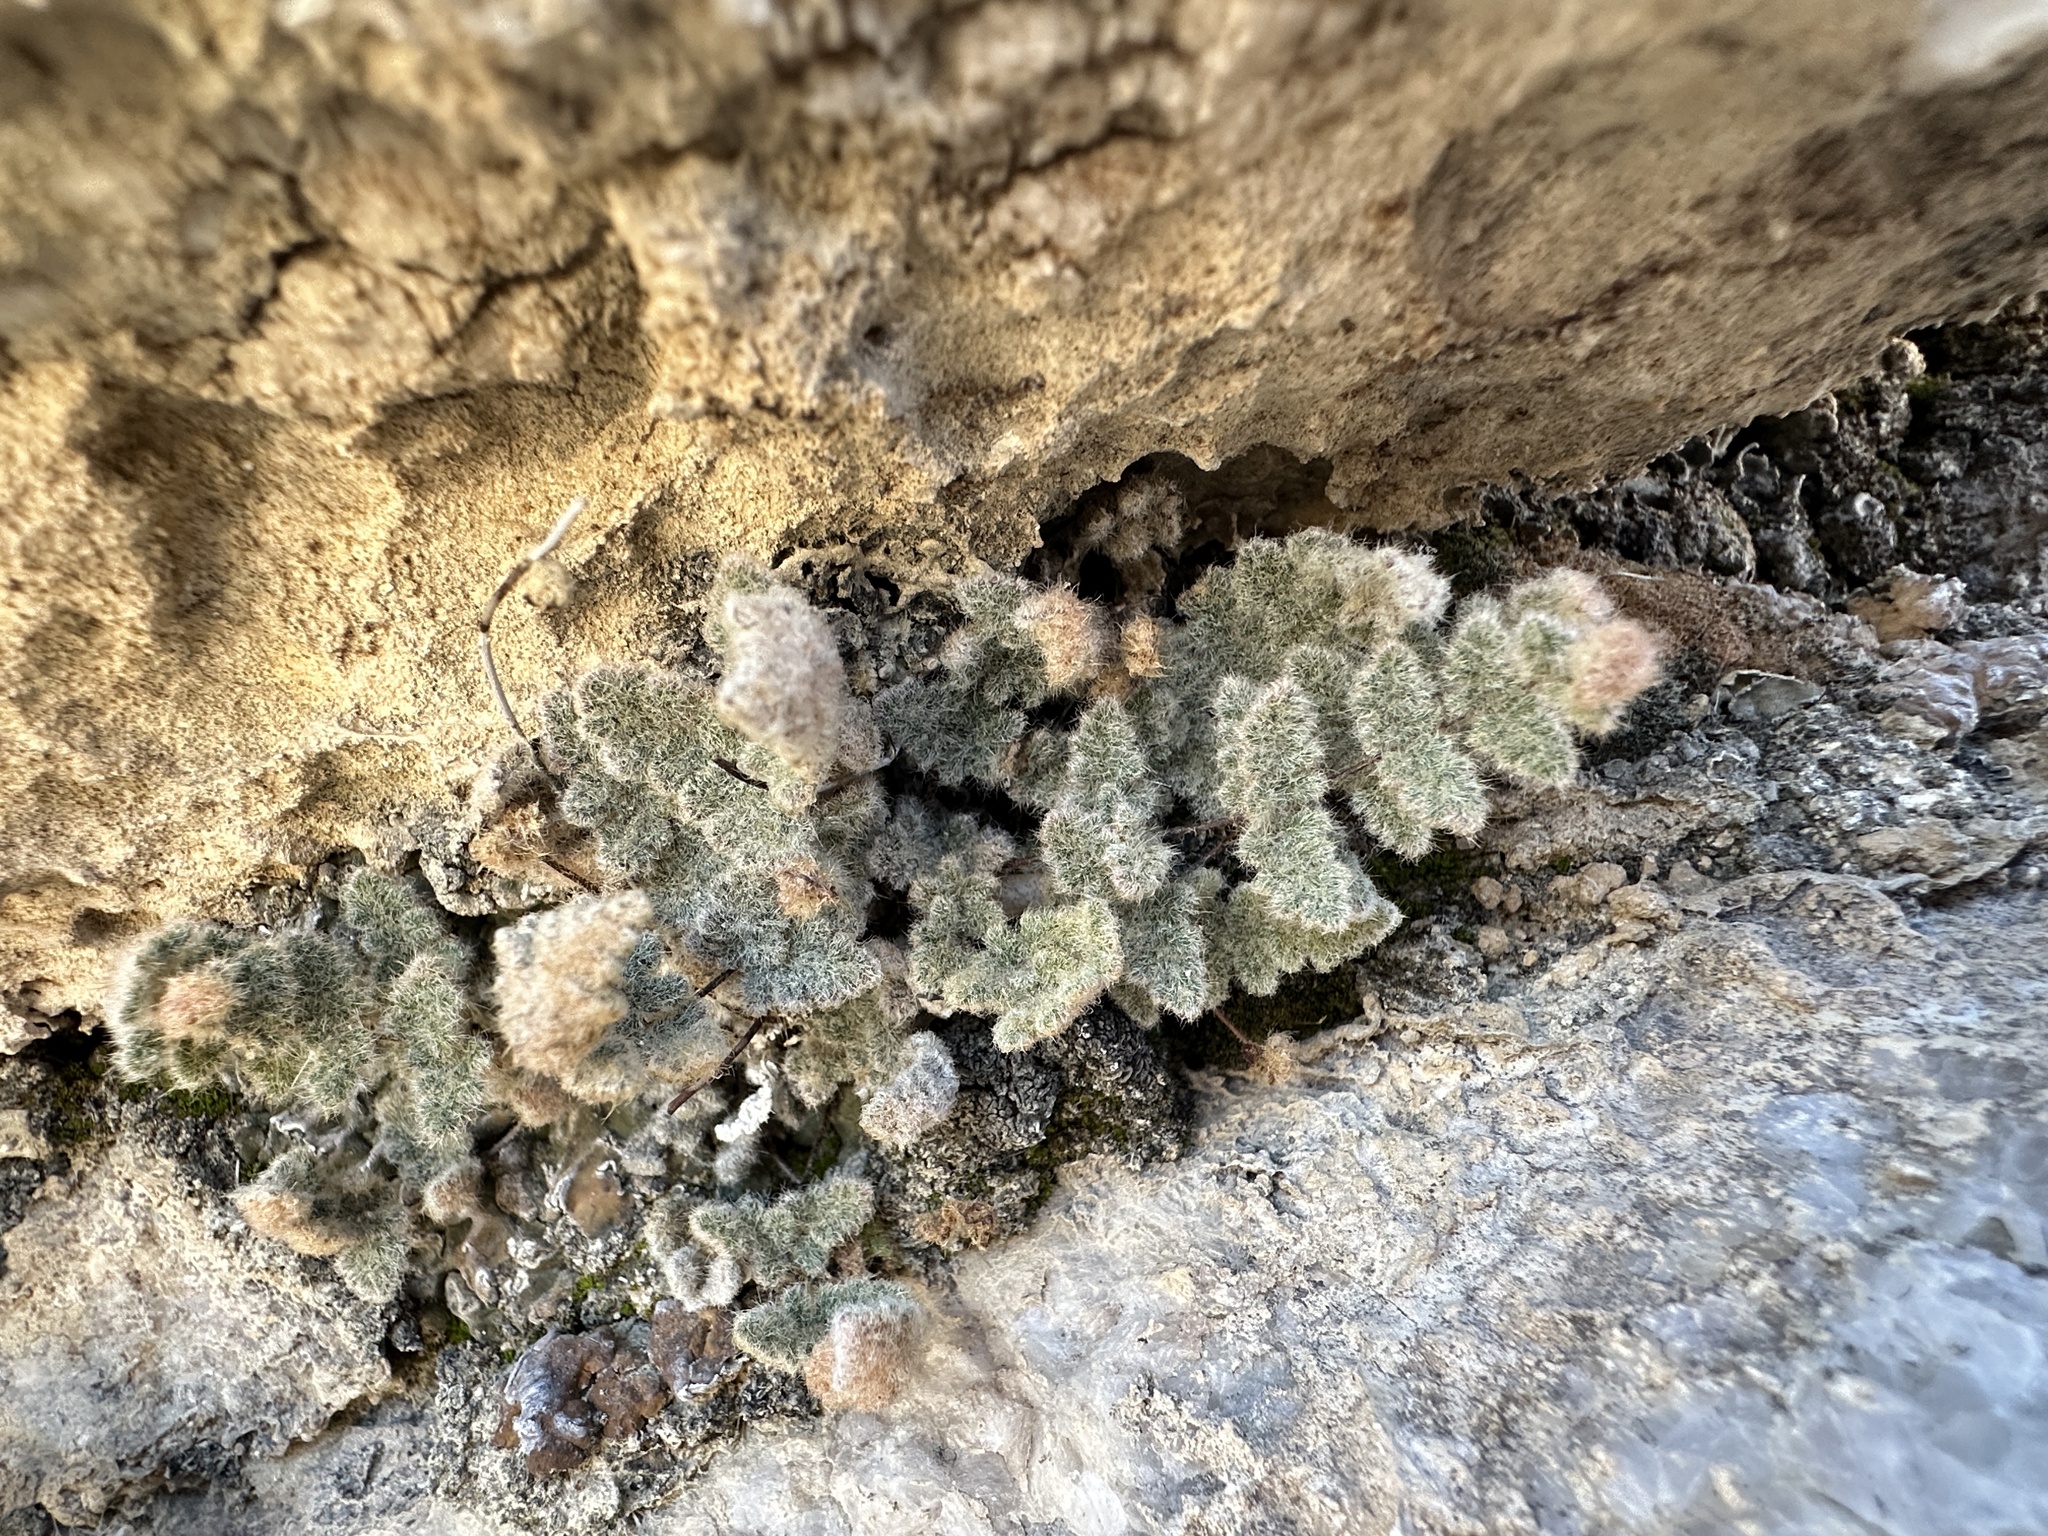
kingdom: Plantae
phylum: Tracheophyta
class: Polypodiopsida
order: Polypodiales
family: Pteridaceae
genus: Myriopteris
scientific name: Myriopteris parryi
